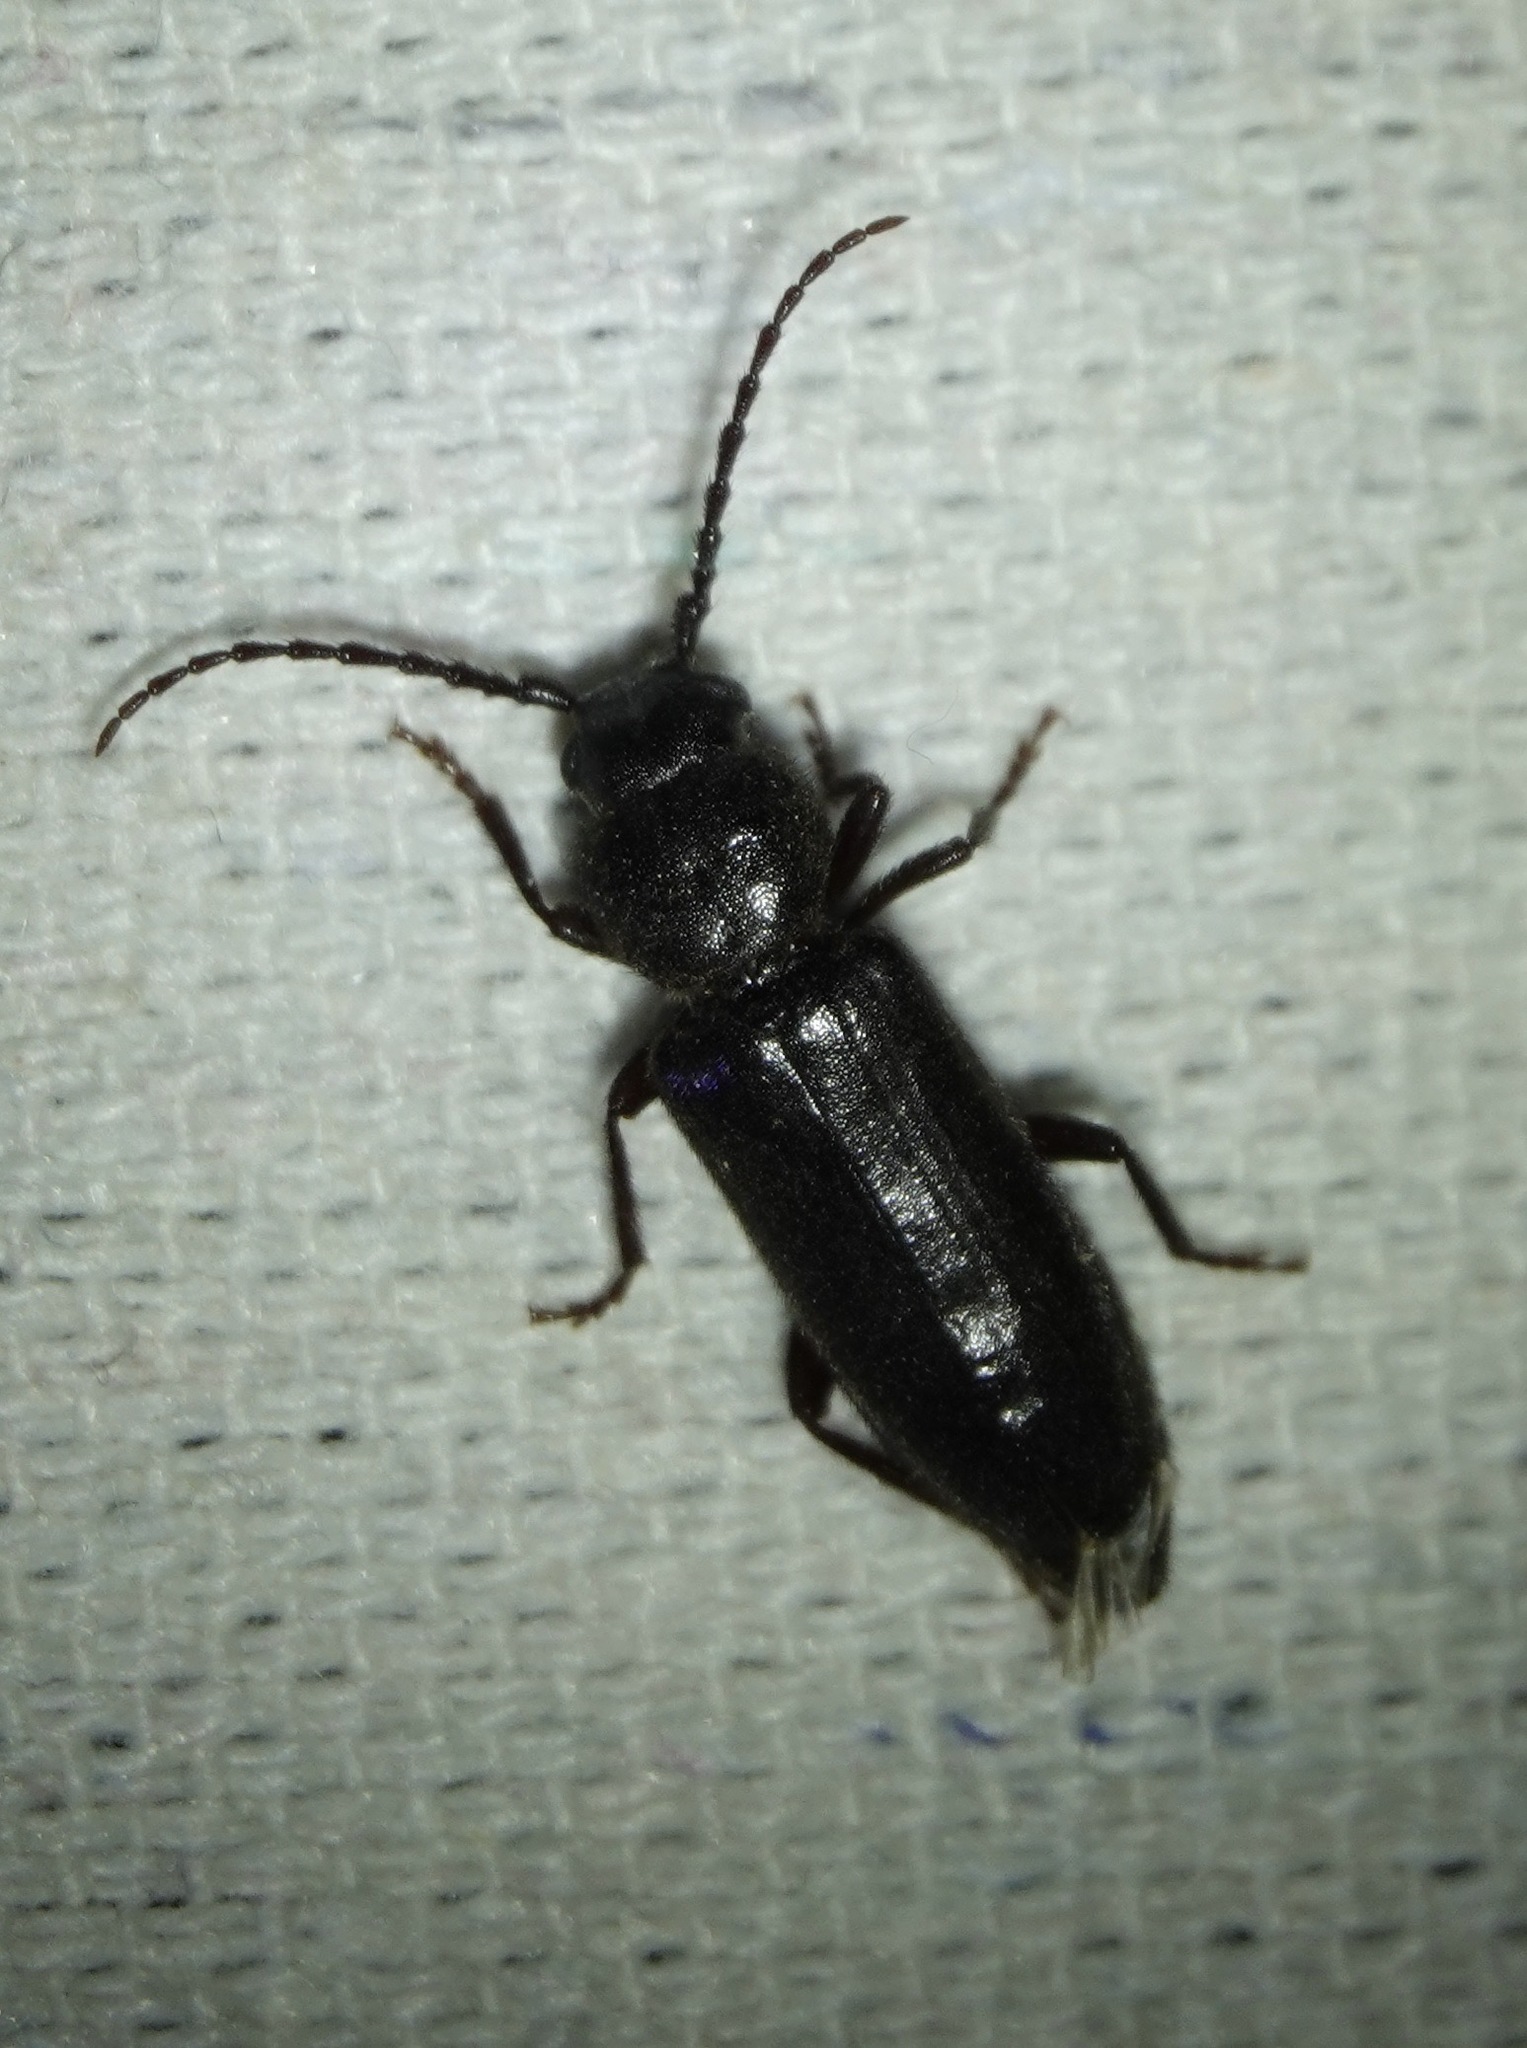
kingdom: Animalia
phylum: Arthropoda
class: Insecta
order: Coleoptera
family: Cerambycidae
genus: Asemum
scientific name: Asemum nitidum
